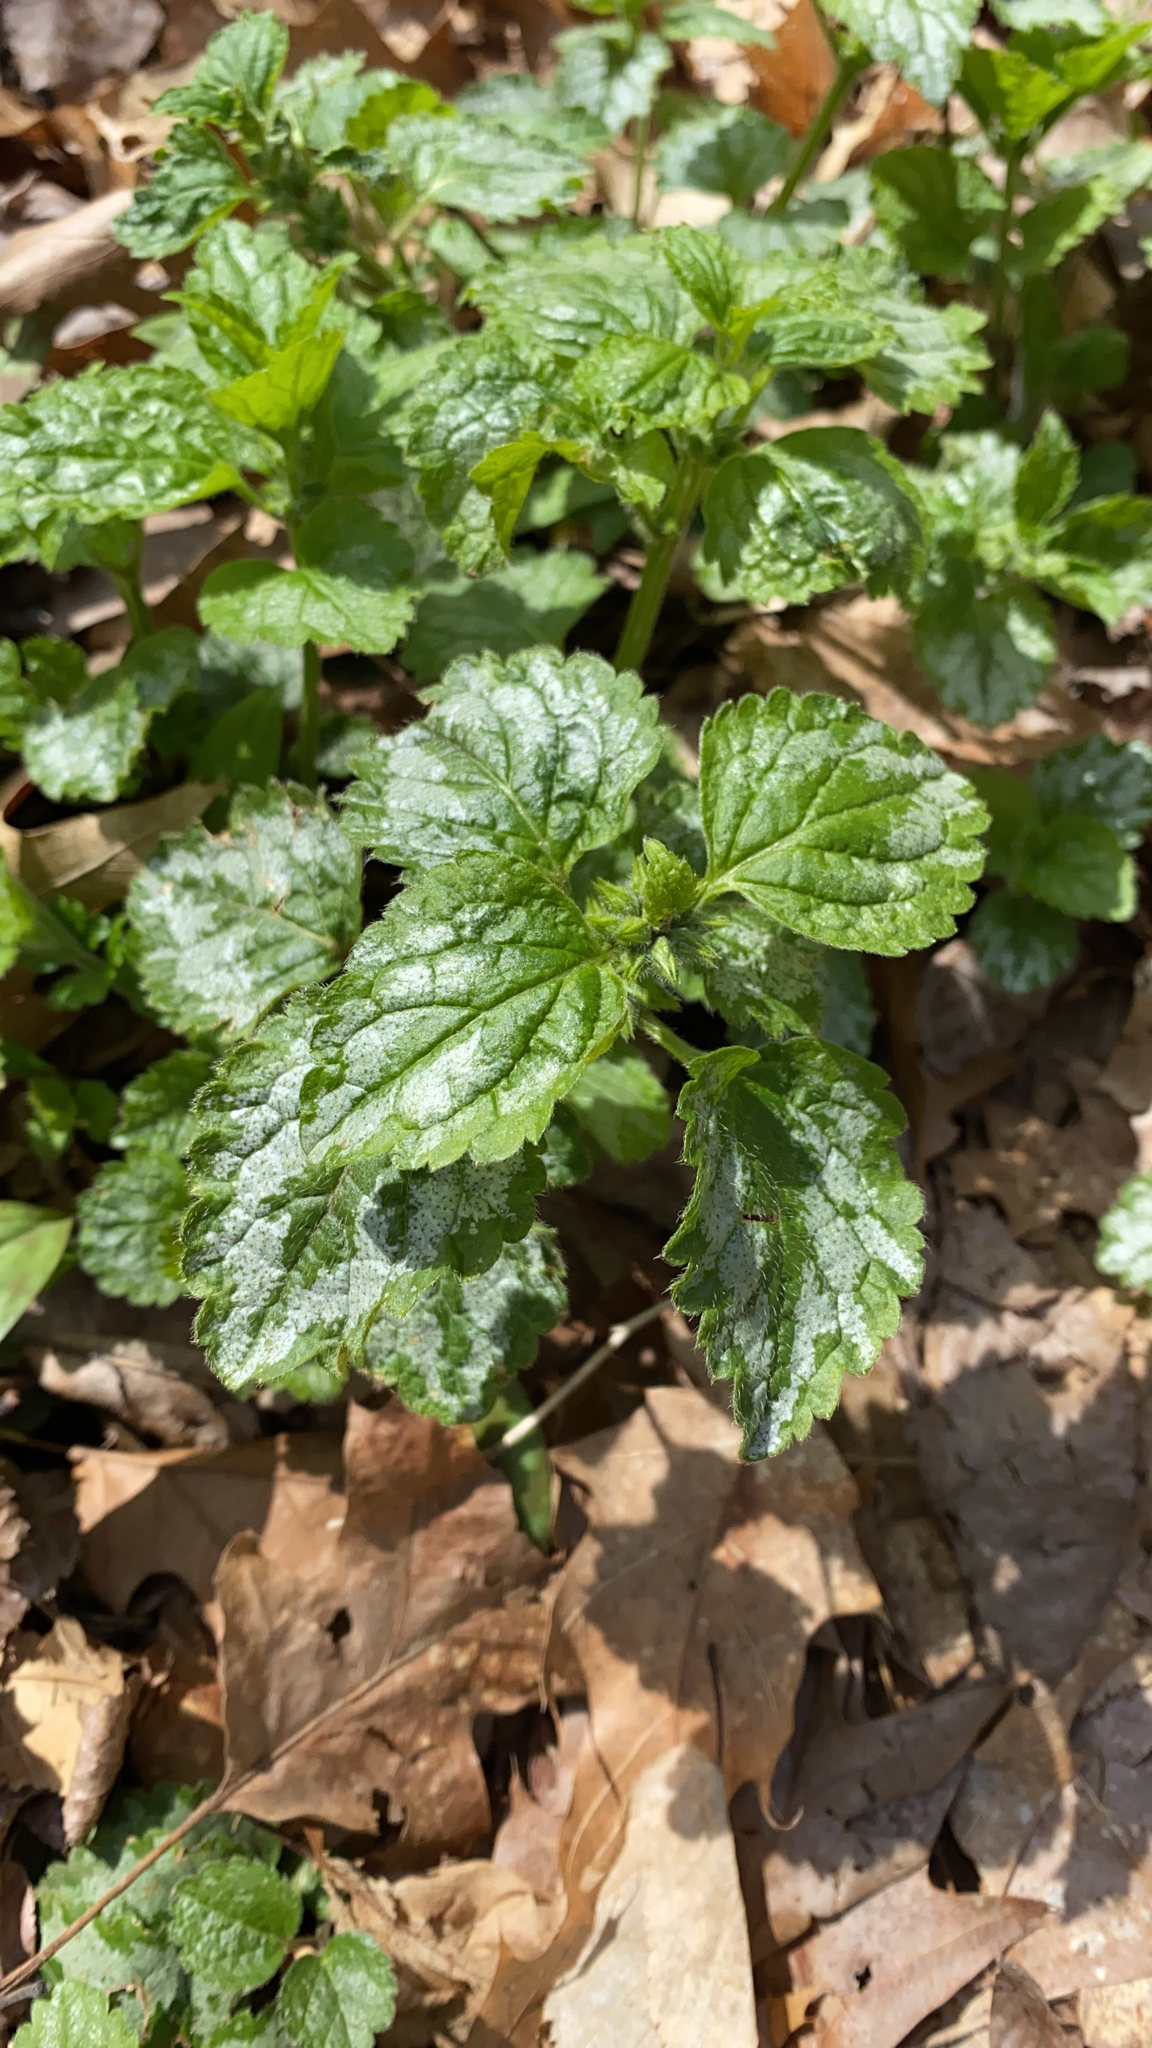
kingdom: Plantae
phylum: Tracheophyta
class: Magnoliopsida
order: Lamiales
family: Lamiaceae
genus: Lamium
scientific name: Lamium galeobdolon
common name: Yellow archangel
